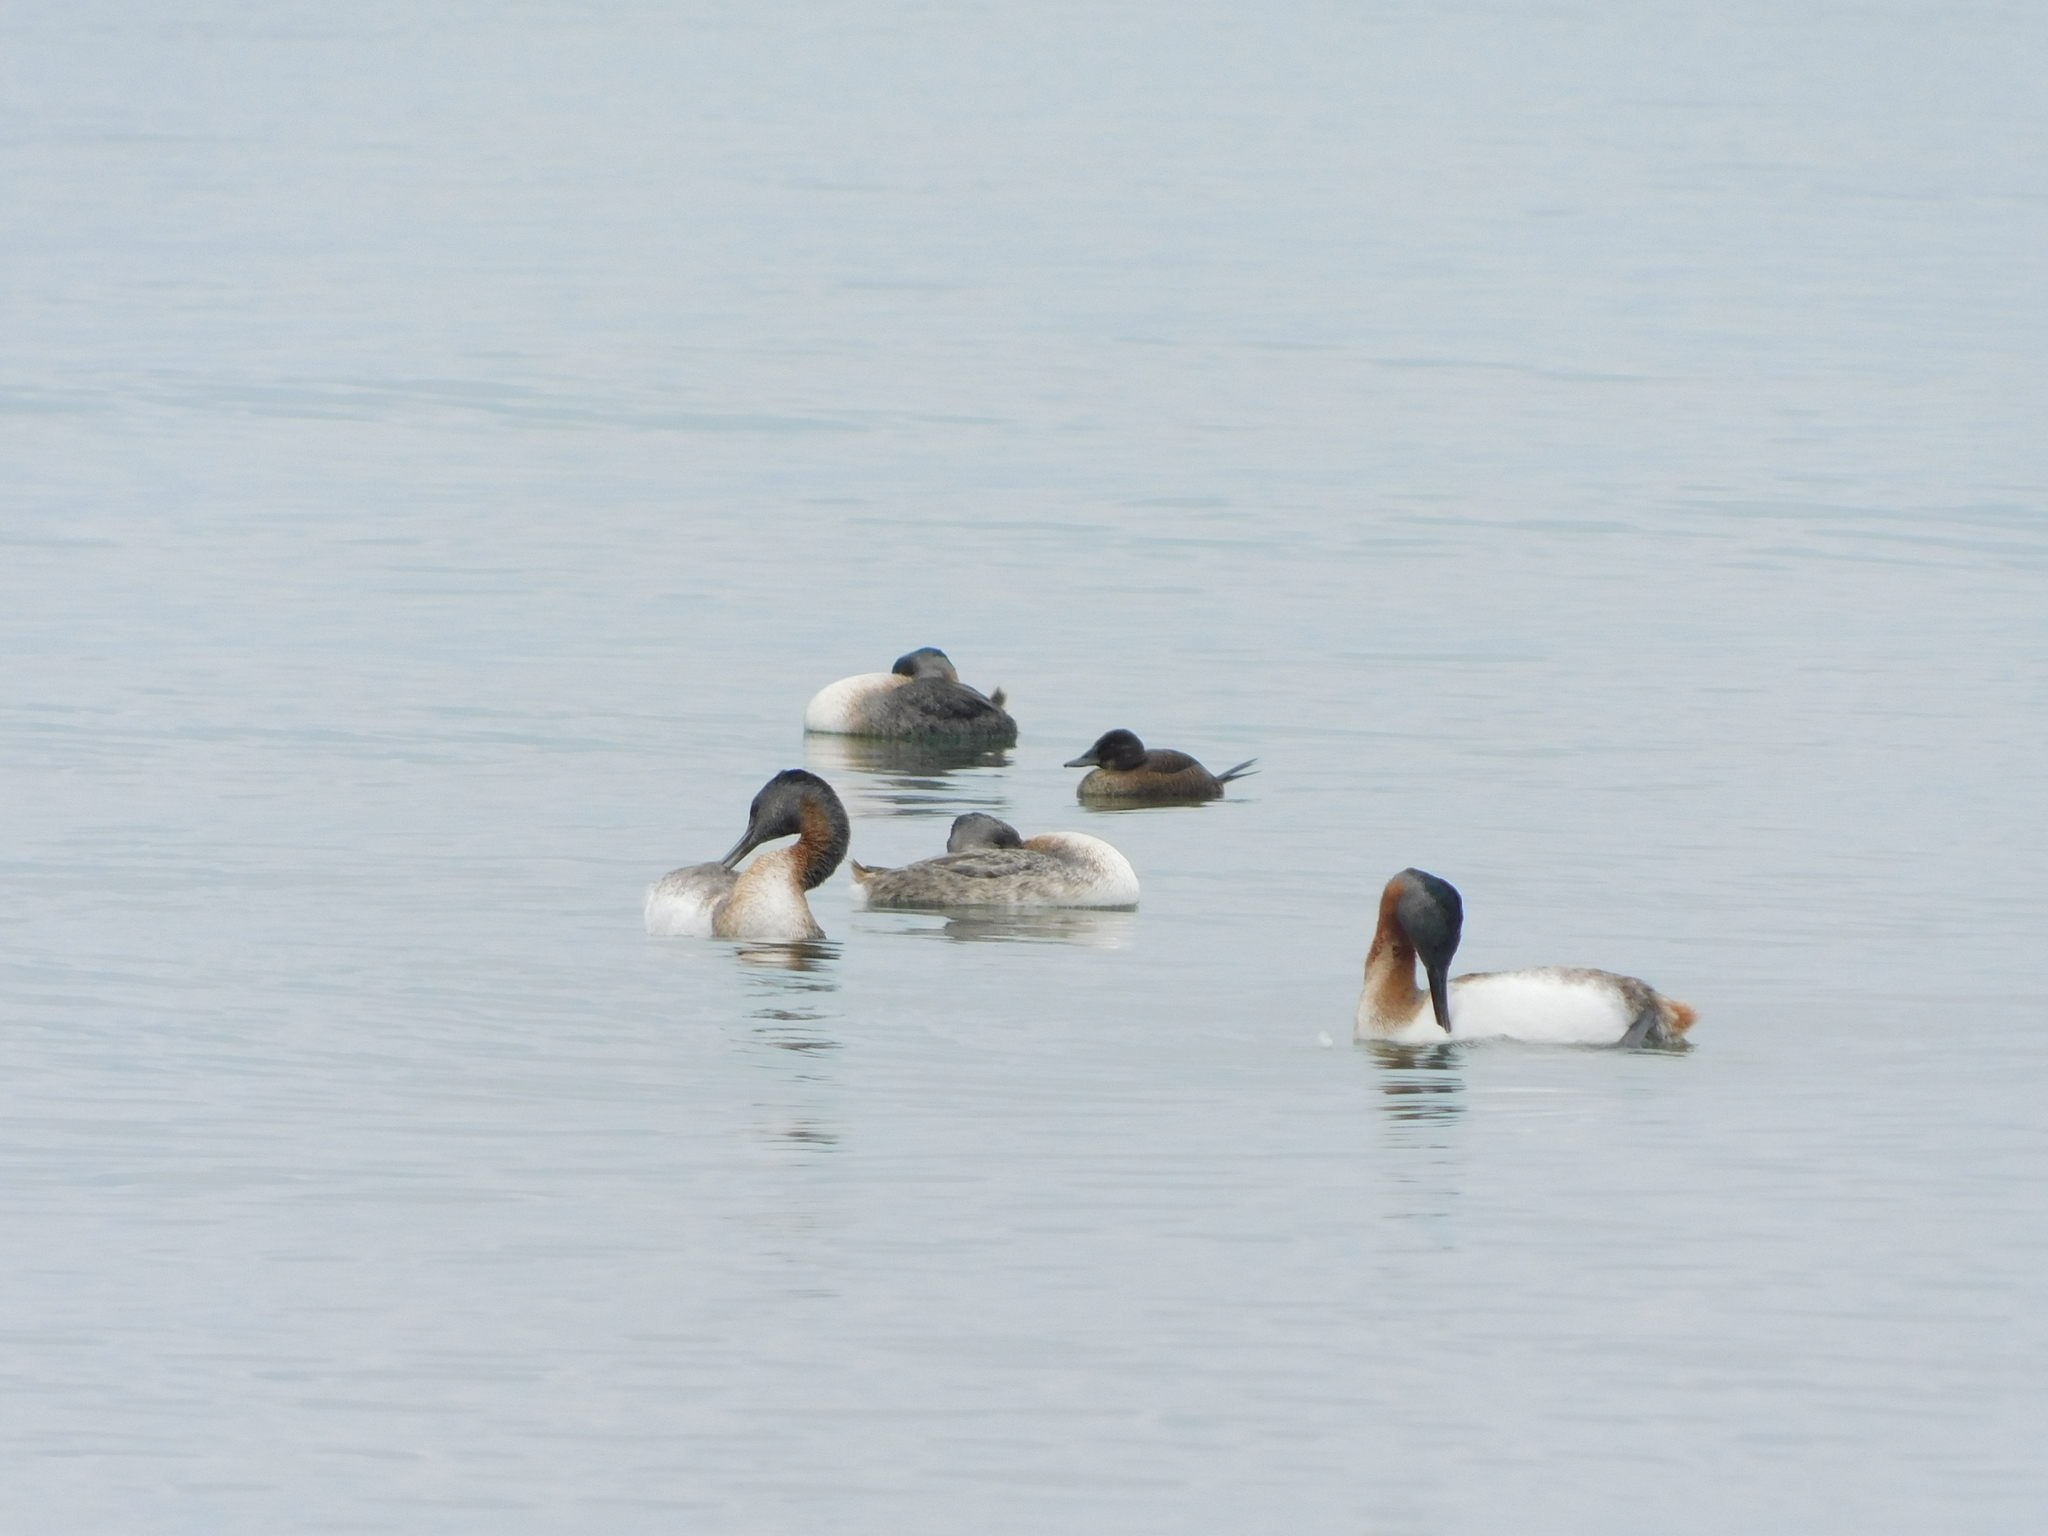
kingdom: Animalia
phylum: Chordata
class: Aves
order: Anseriformes
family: Anatidae
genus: Oxyura
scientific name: Oxyura vittata
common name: Lake duck
